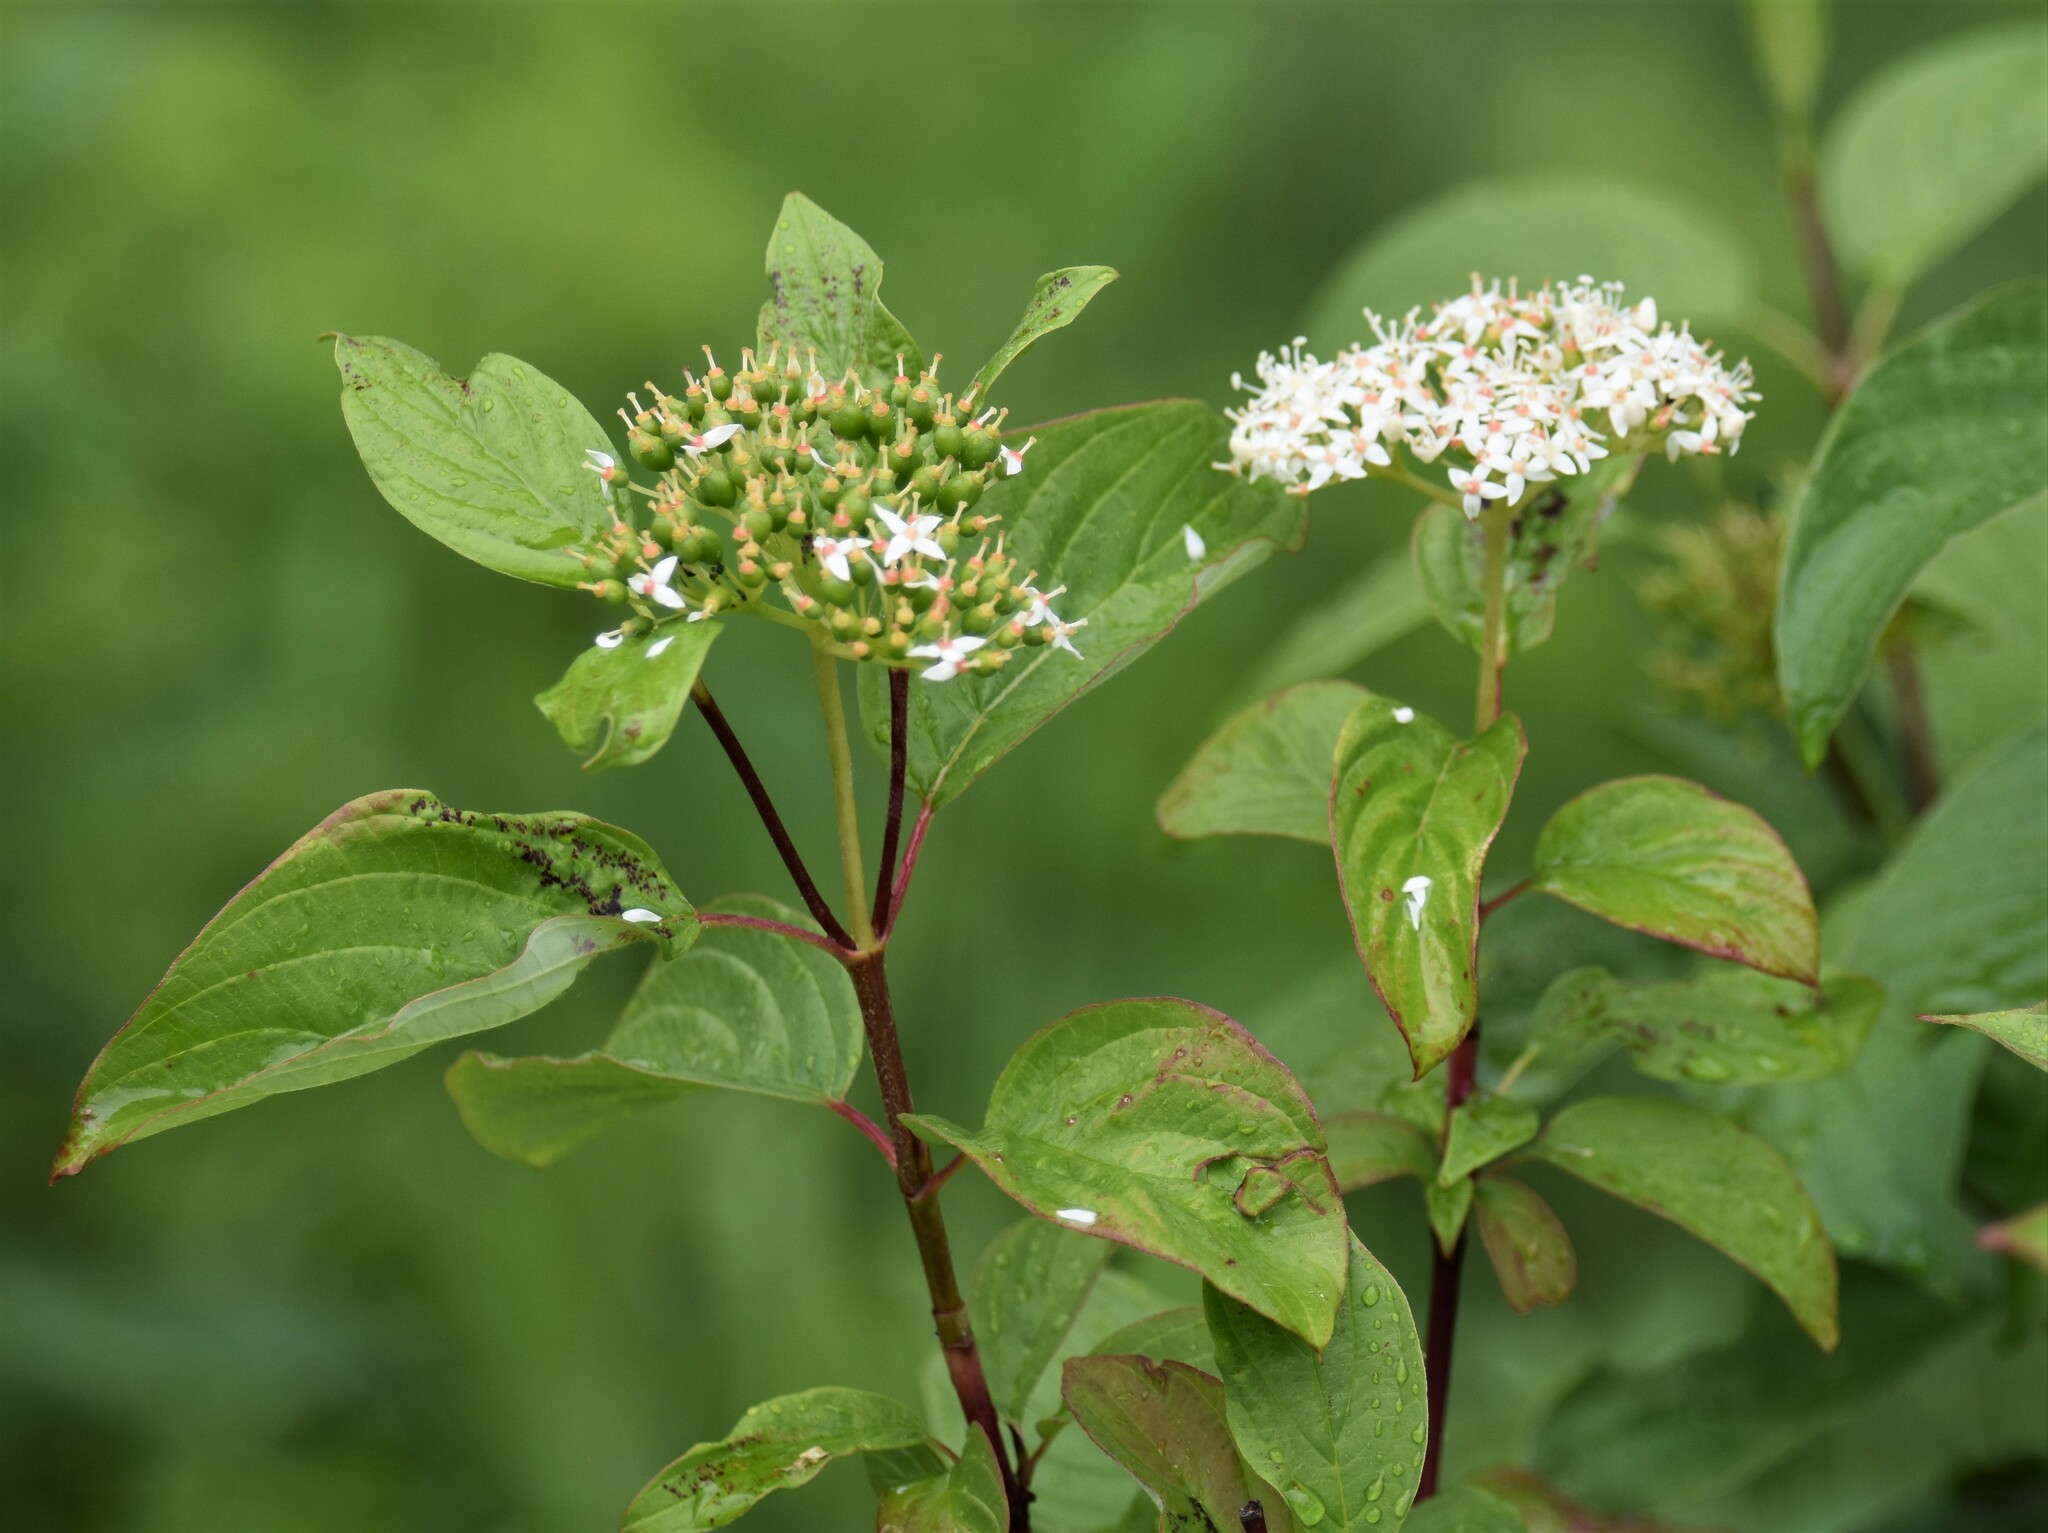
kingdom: Plantae
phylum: Tracheophyta
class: Magnoliopsida
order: Cornales
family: Cornaceae
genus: Cornus
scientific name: Cornus sericea
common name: Red-osier dogwood
